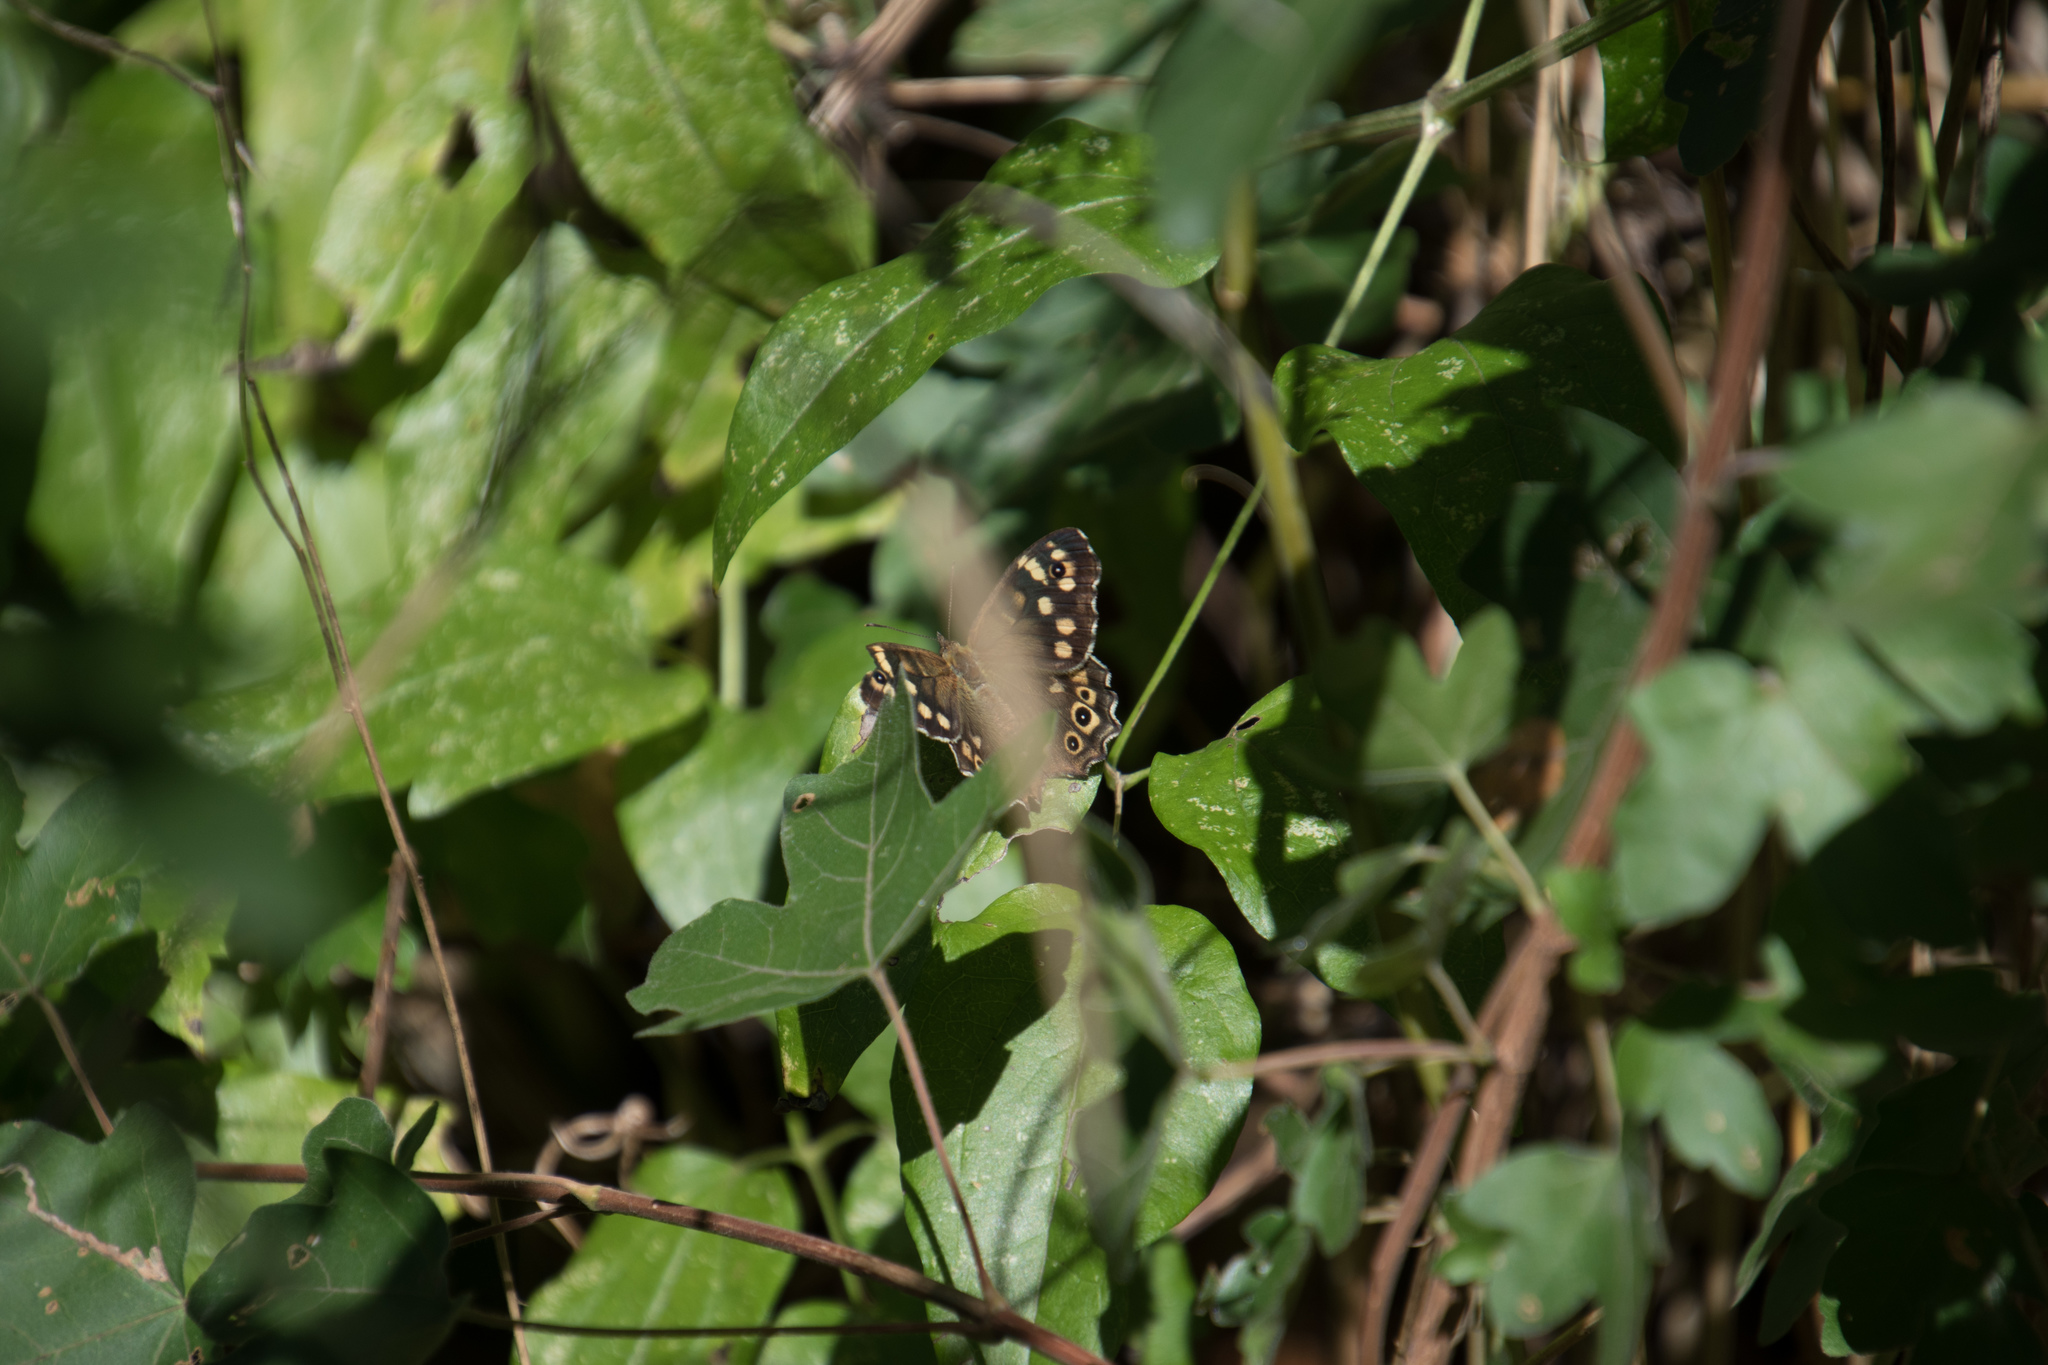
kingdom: Animalia
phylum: Arthropoda
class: Insecta
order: Lepidoptera
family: Nymphalidae
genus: Pararge
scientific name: Pararge aegeria
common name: Speckled wood
